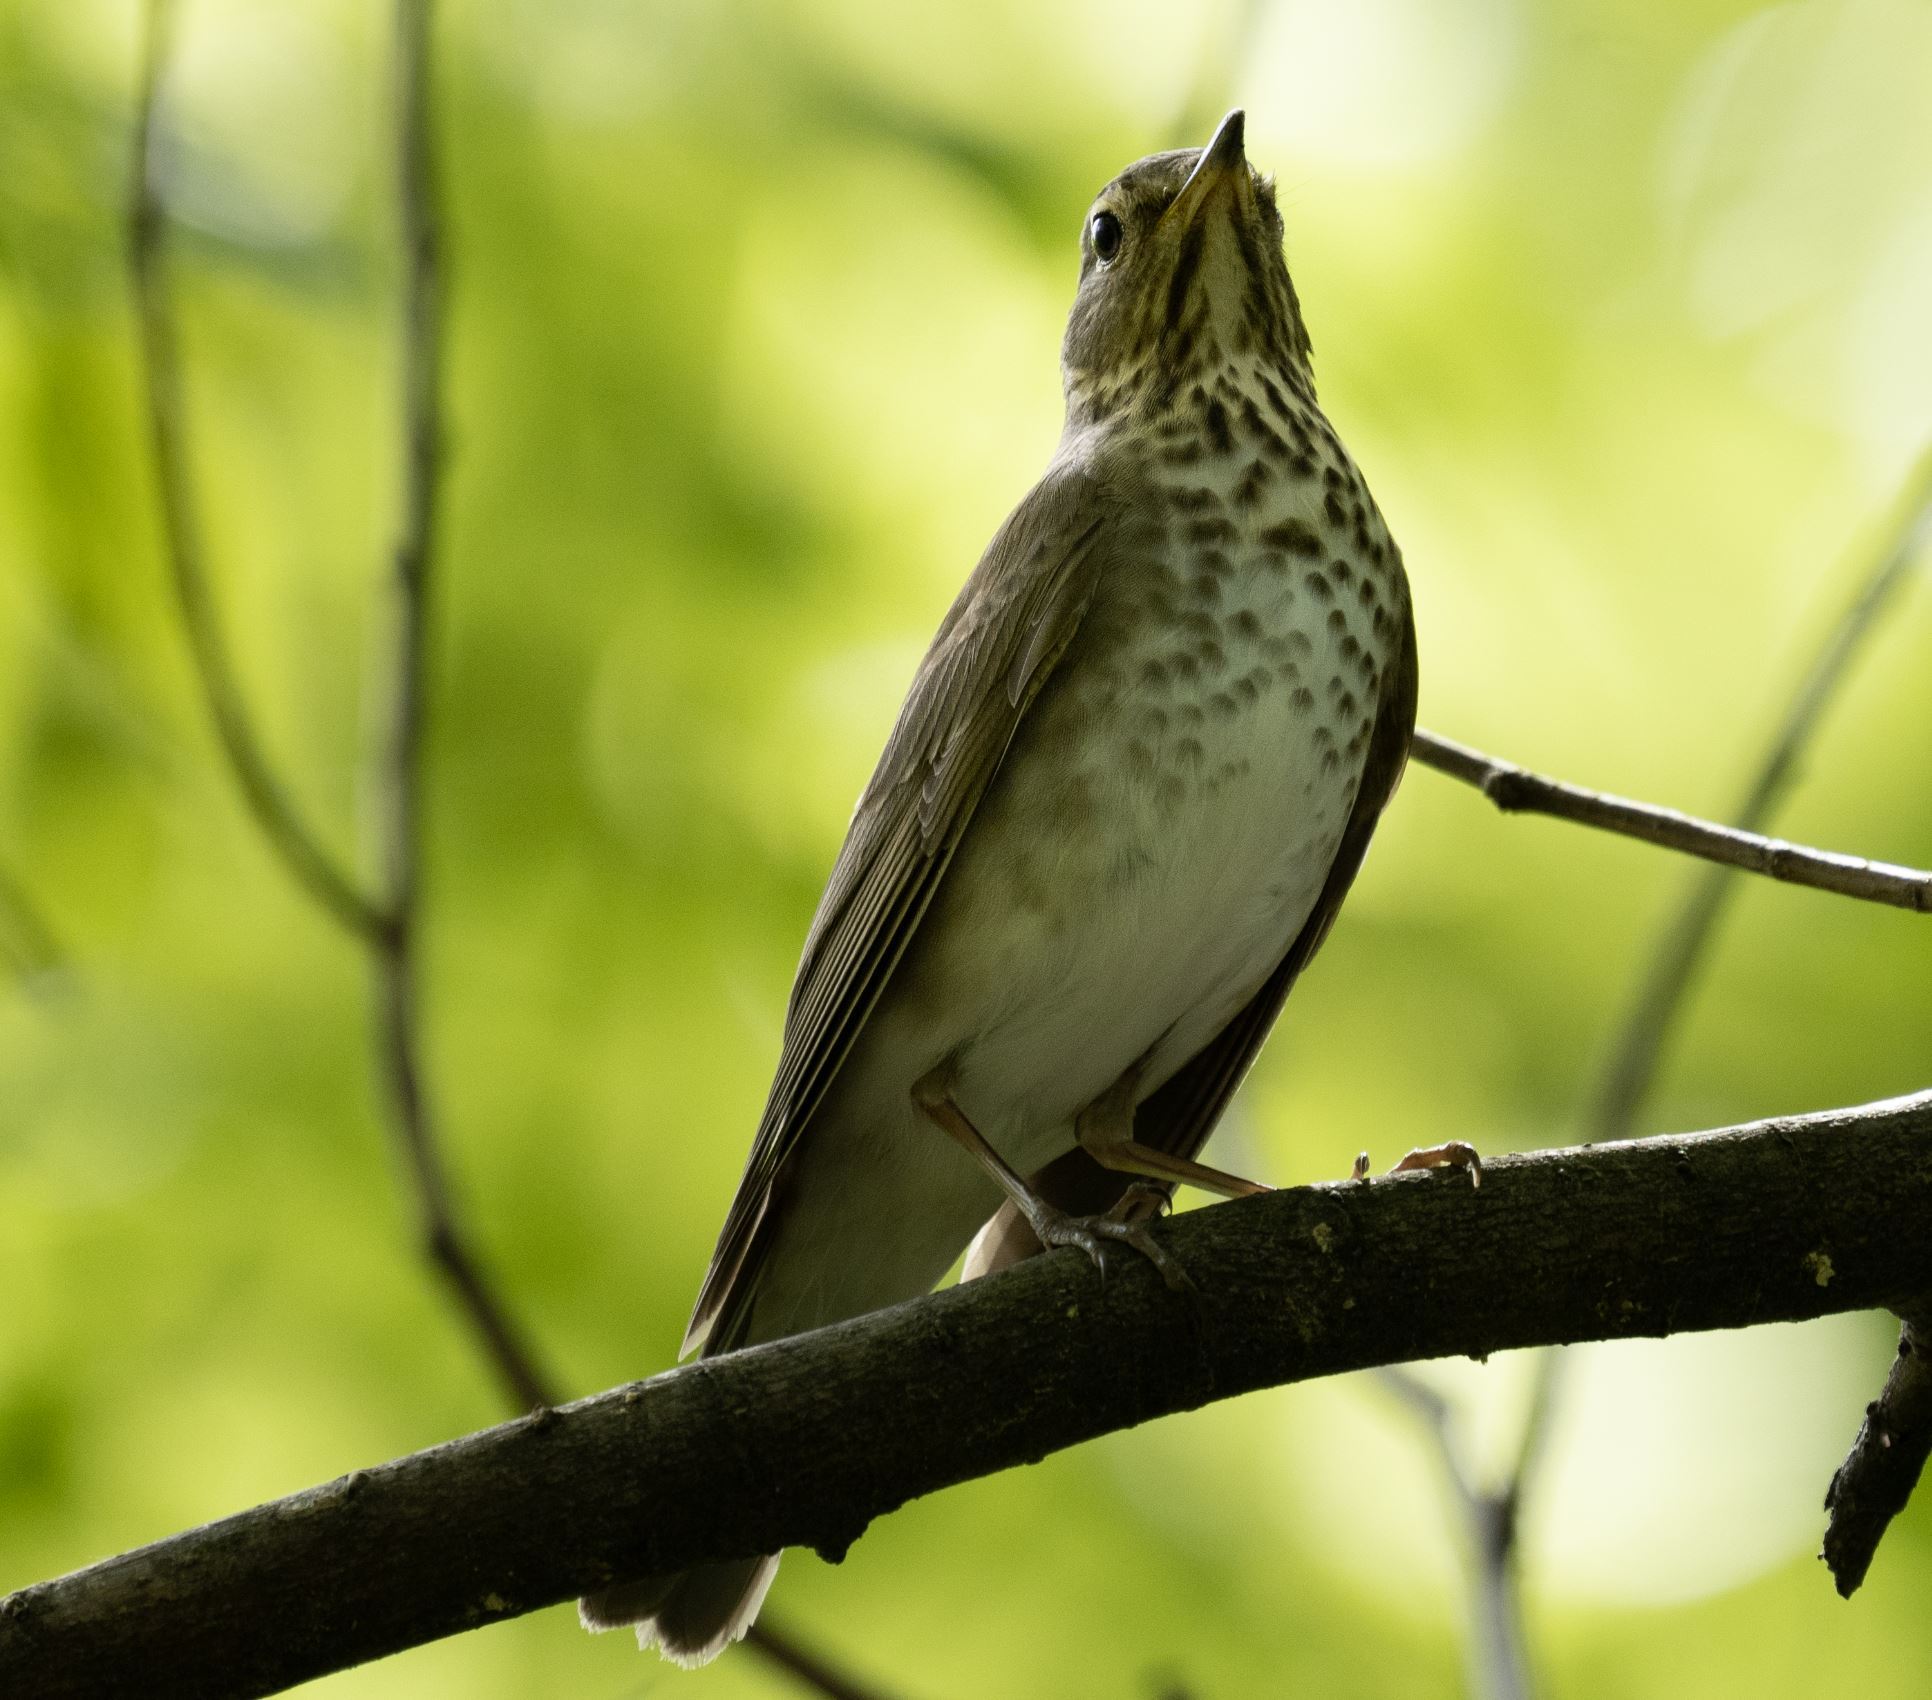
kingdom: Animalia
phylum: Chordata
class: Aves
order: Passeriformes
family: Turdidae
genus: Catharus
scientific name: Catharus ustulatus
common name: Swainson's thrush
